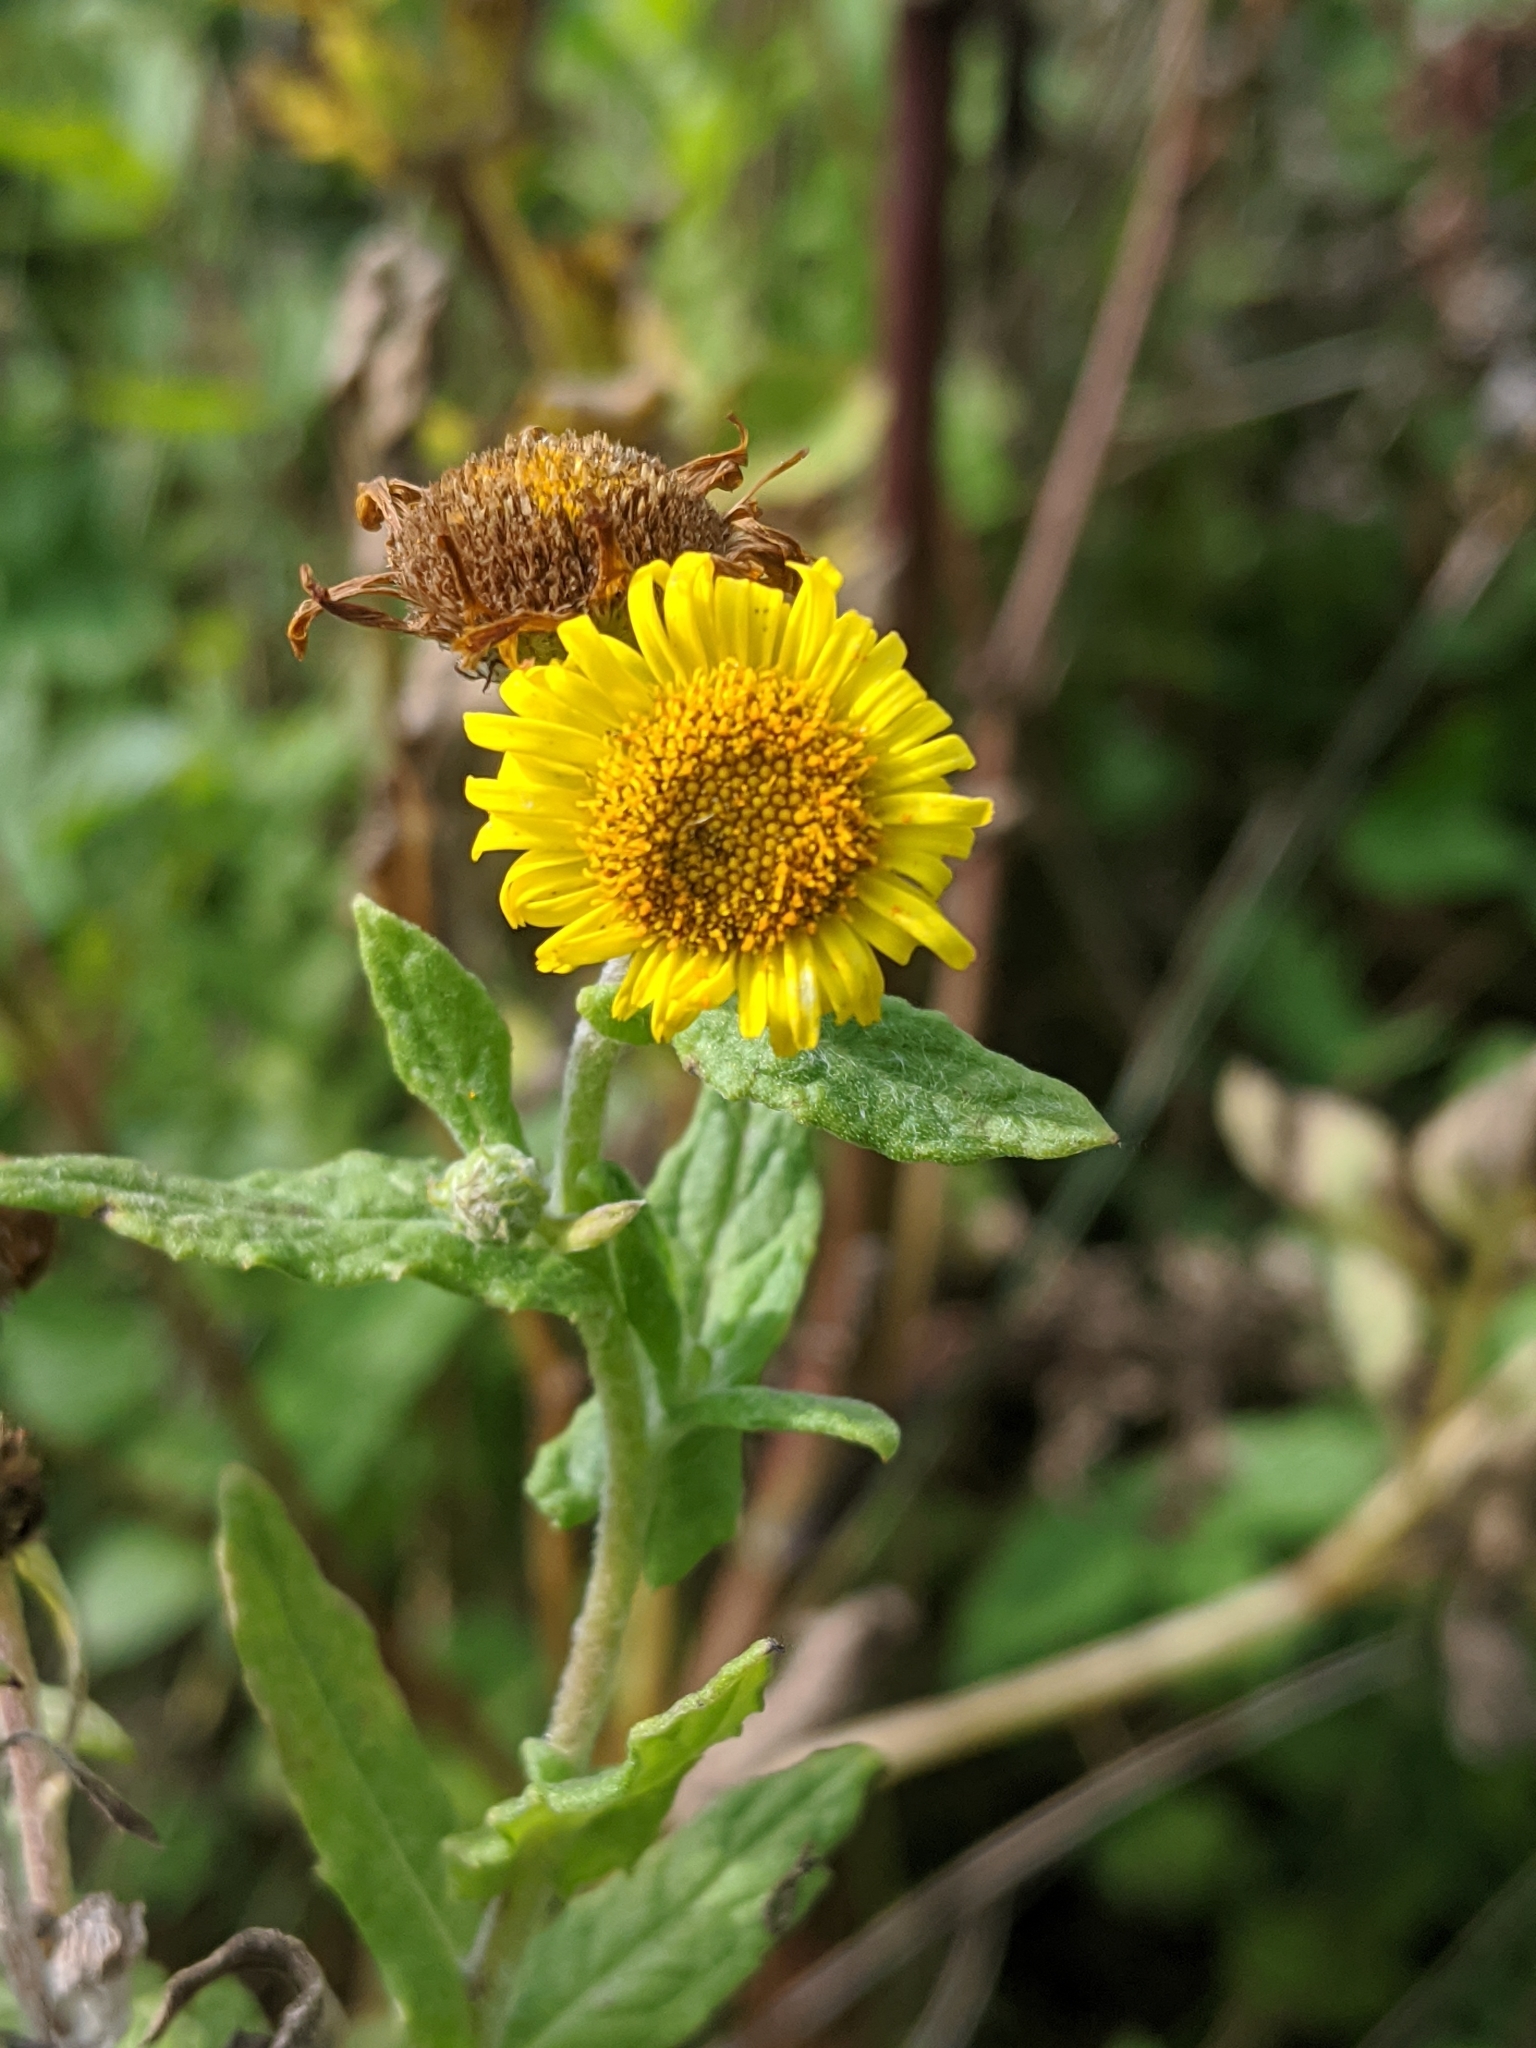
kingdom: Plantae
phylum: Tracheophyta
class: Magnoliopsida
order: Asterales
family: Asteraceae
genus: Pulicaria
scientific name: Pulicaria dysenterica
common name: Common fleabane
